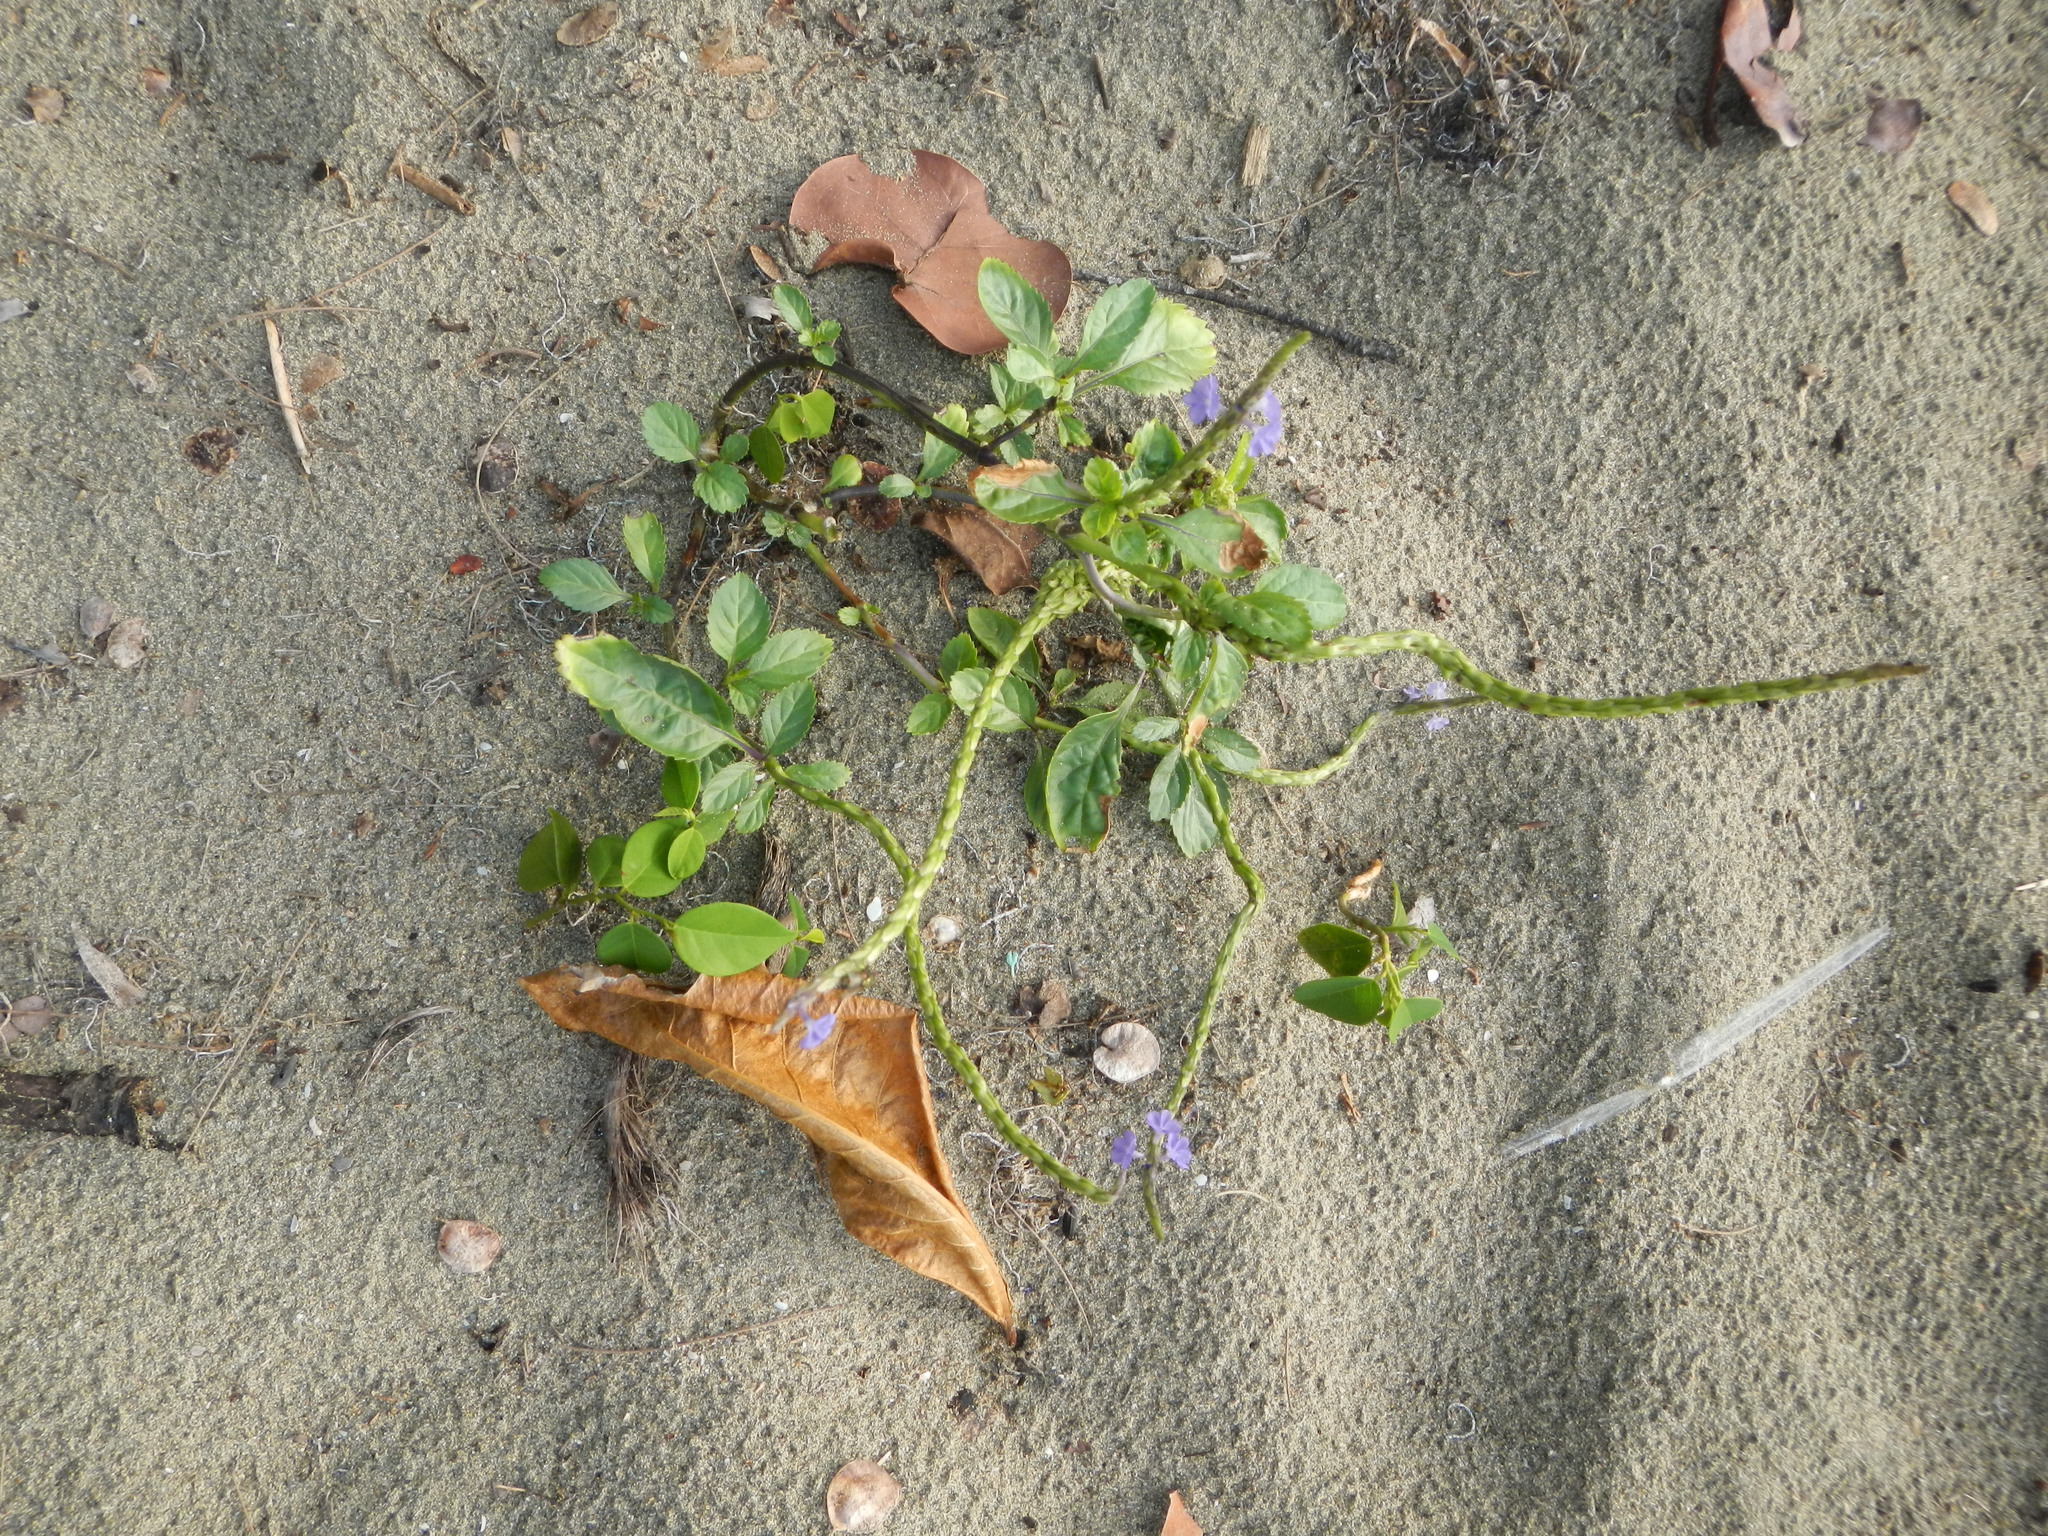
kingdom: Plantae
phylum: Tracheophyta
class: Magnoliopsida
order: Lamiales
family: Verbenaceae
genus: Stachytarpheta
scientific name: Stachytarpheta jamaicensis
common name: Light-blue snakeweed
